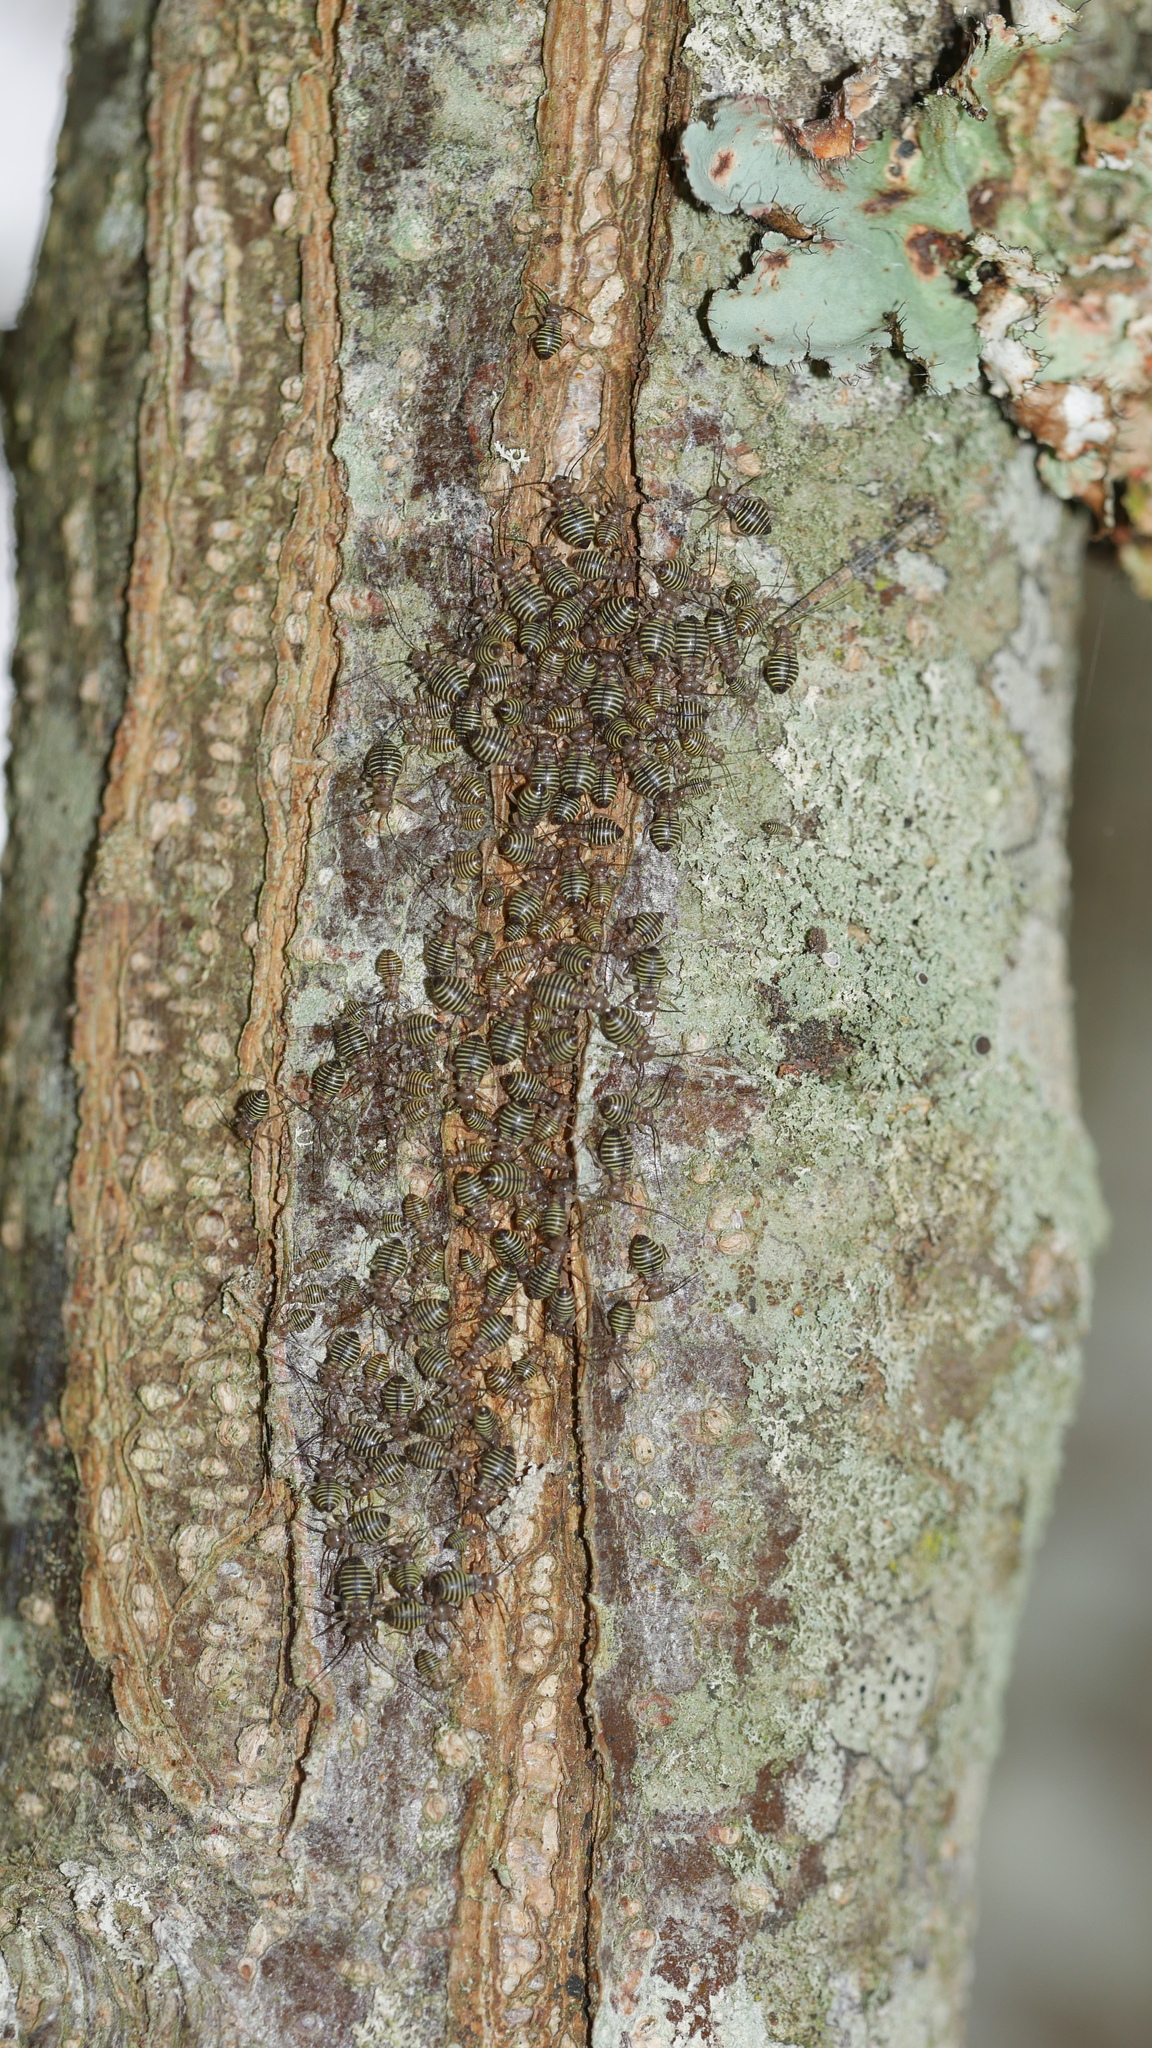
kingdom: Animalia
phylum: Arthropoda
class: Insecta
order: Psocodea
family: Psocidae
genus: Cerastipsocus
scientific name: Cerastipsocus venosus
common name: Tree cattle
